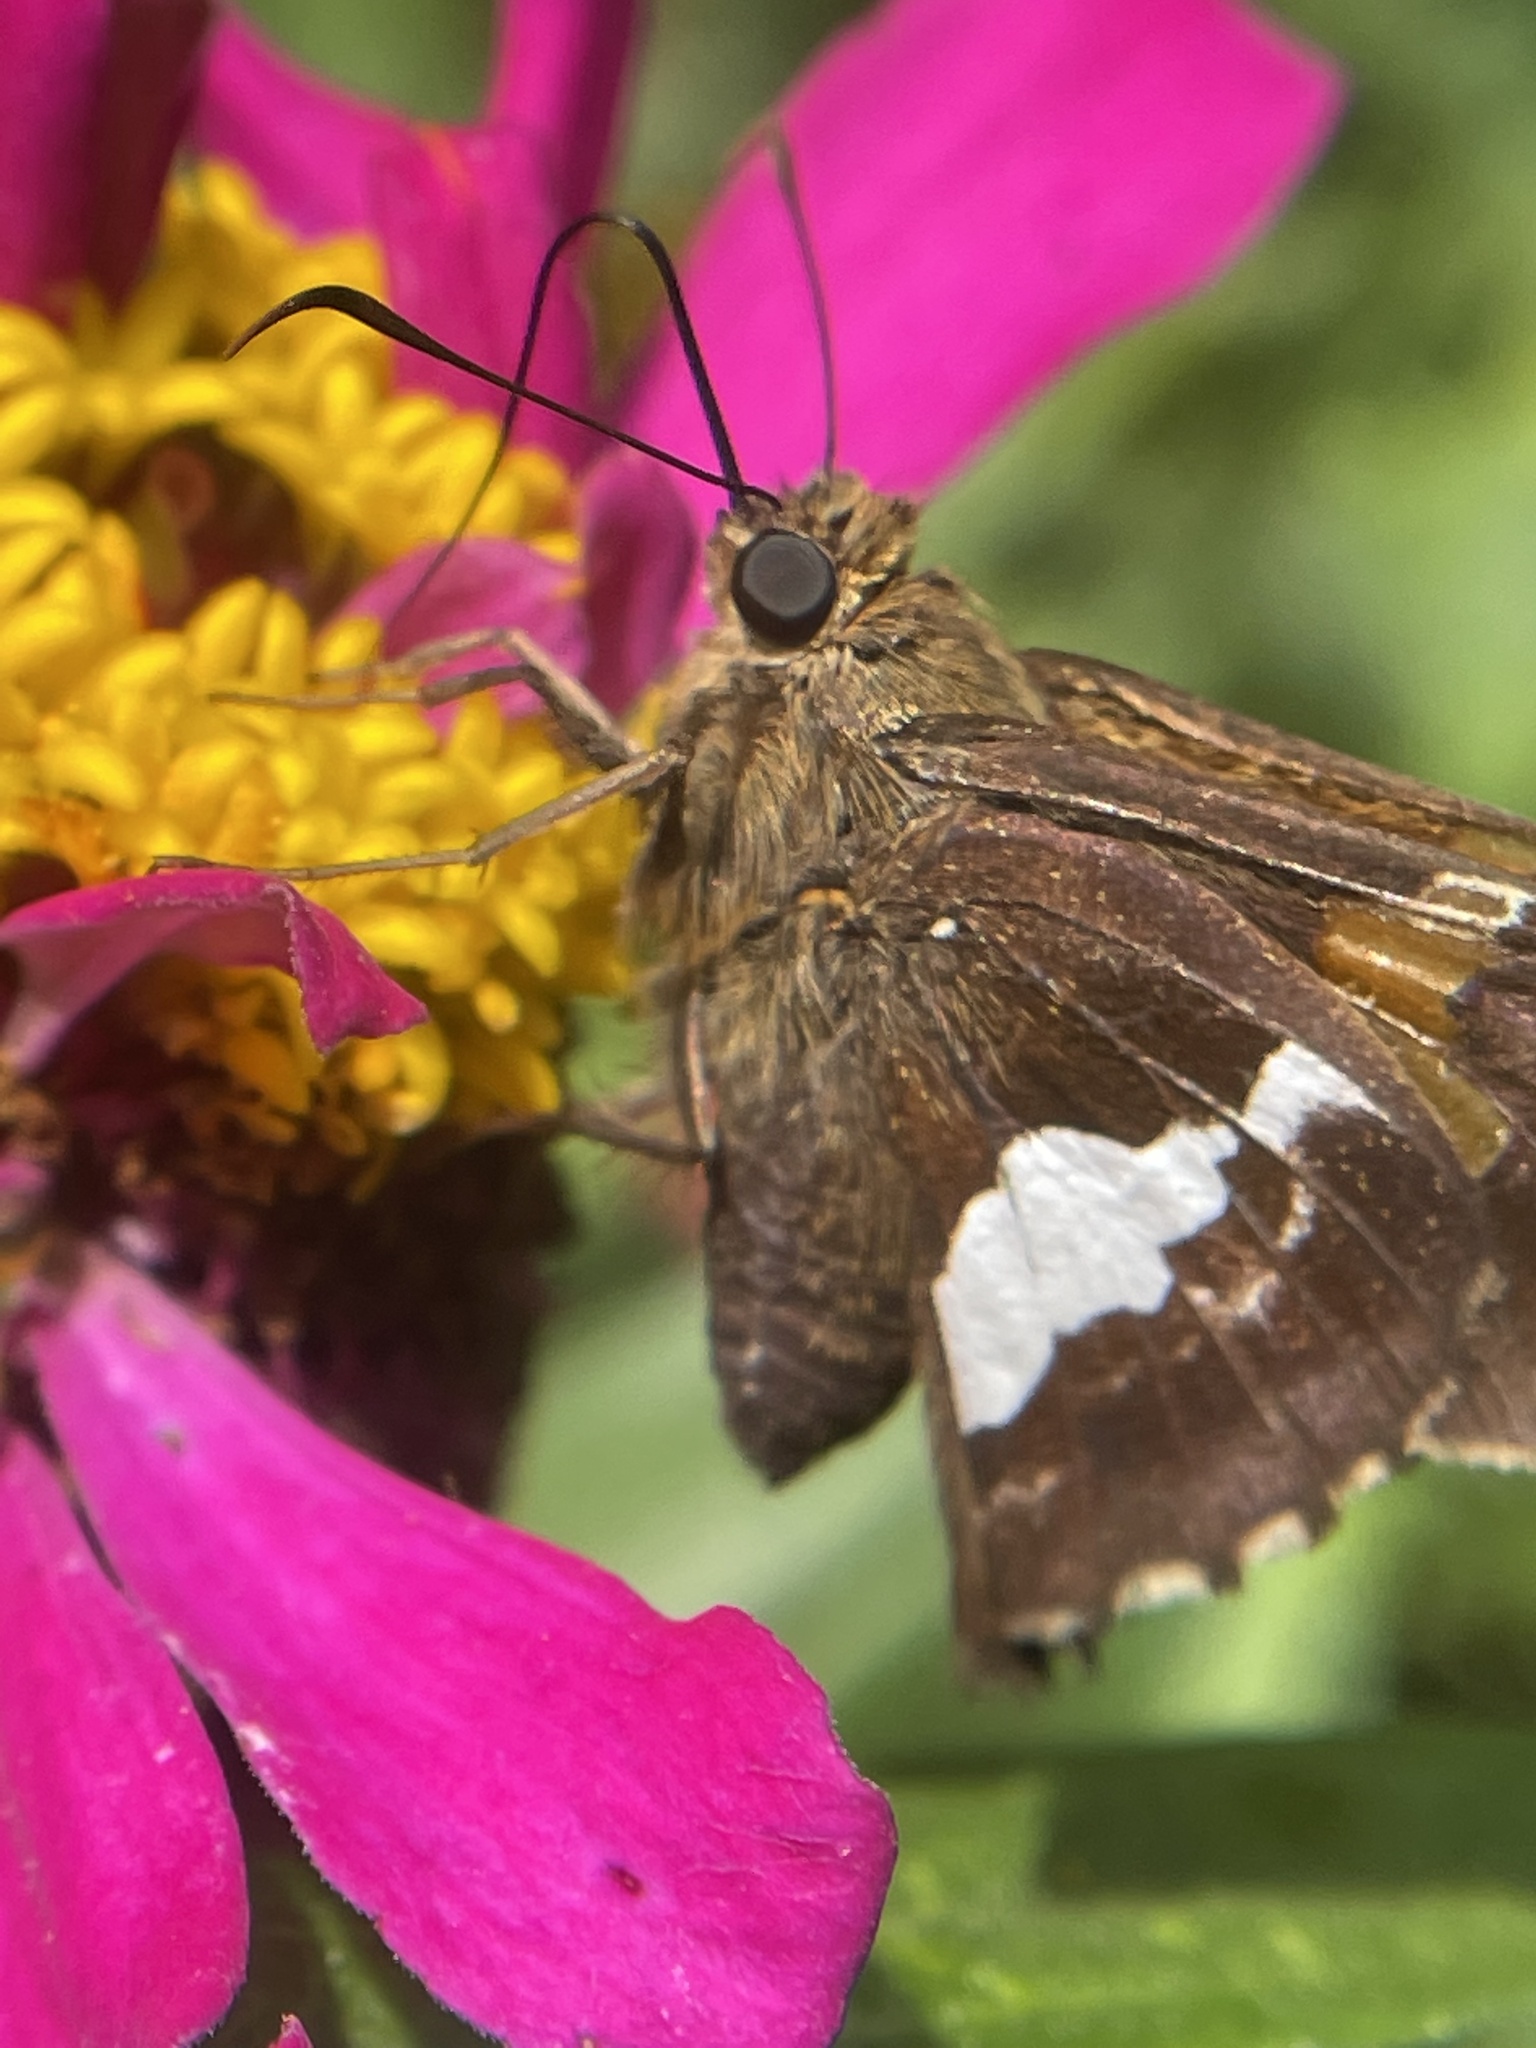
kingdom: Animalia
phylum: Arthropoda
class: Insecta
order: Lepidoptera
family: Hesperiidae
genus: Epargyreus
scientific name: Epargyreus clarus
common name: Silver-spotted skipper
